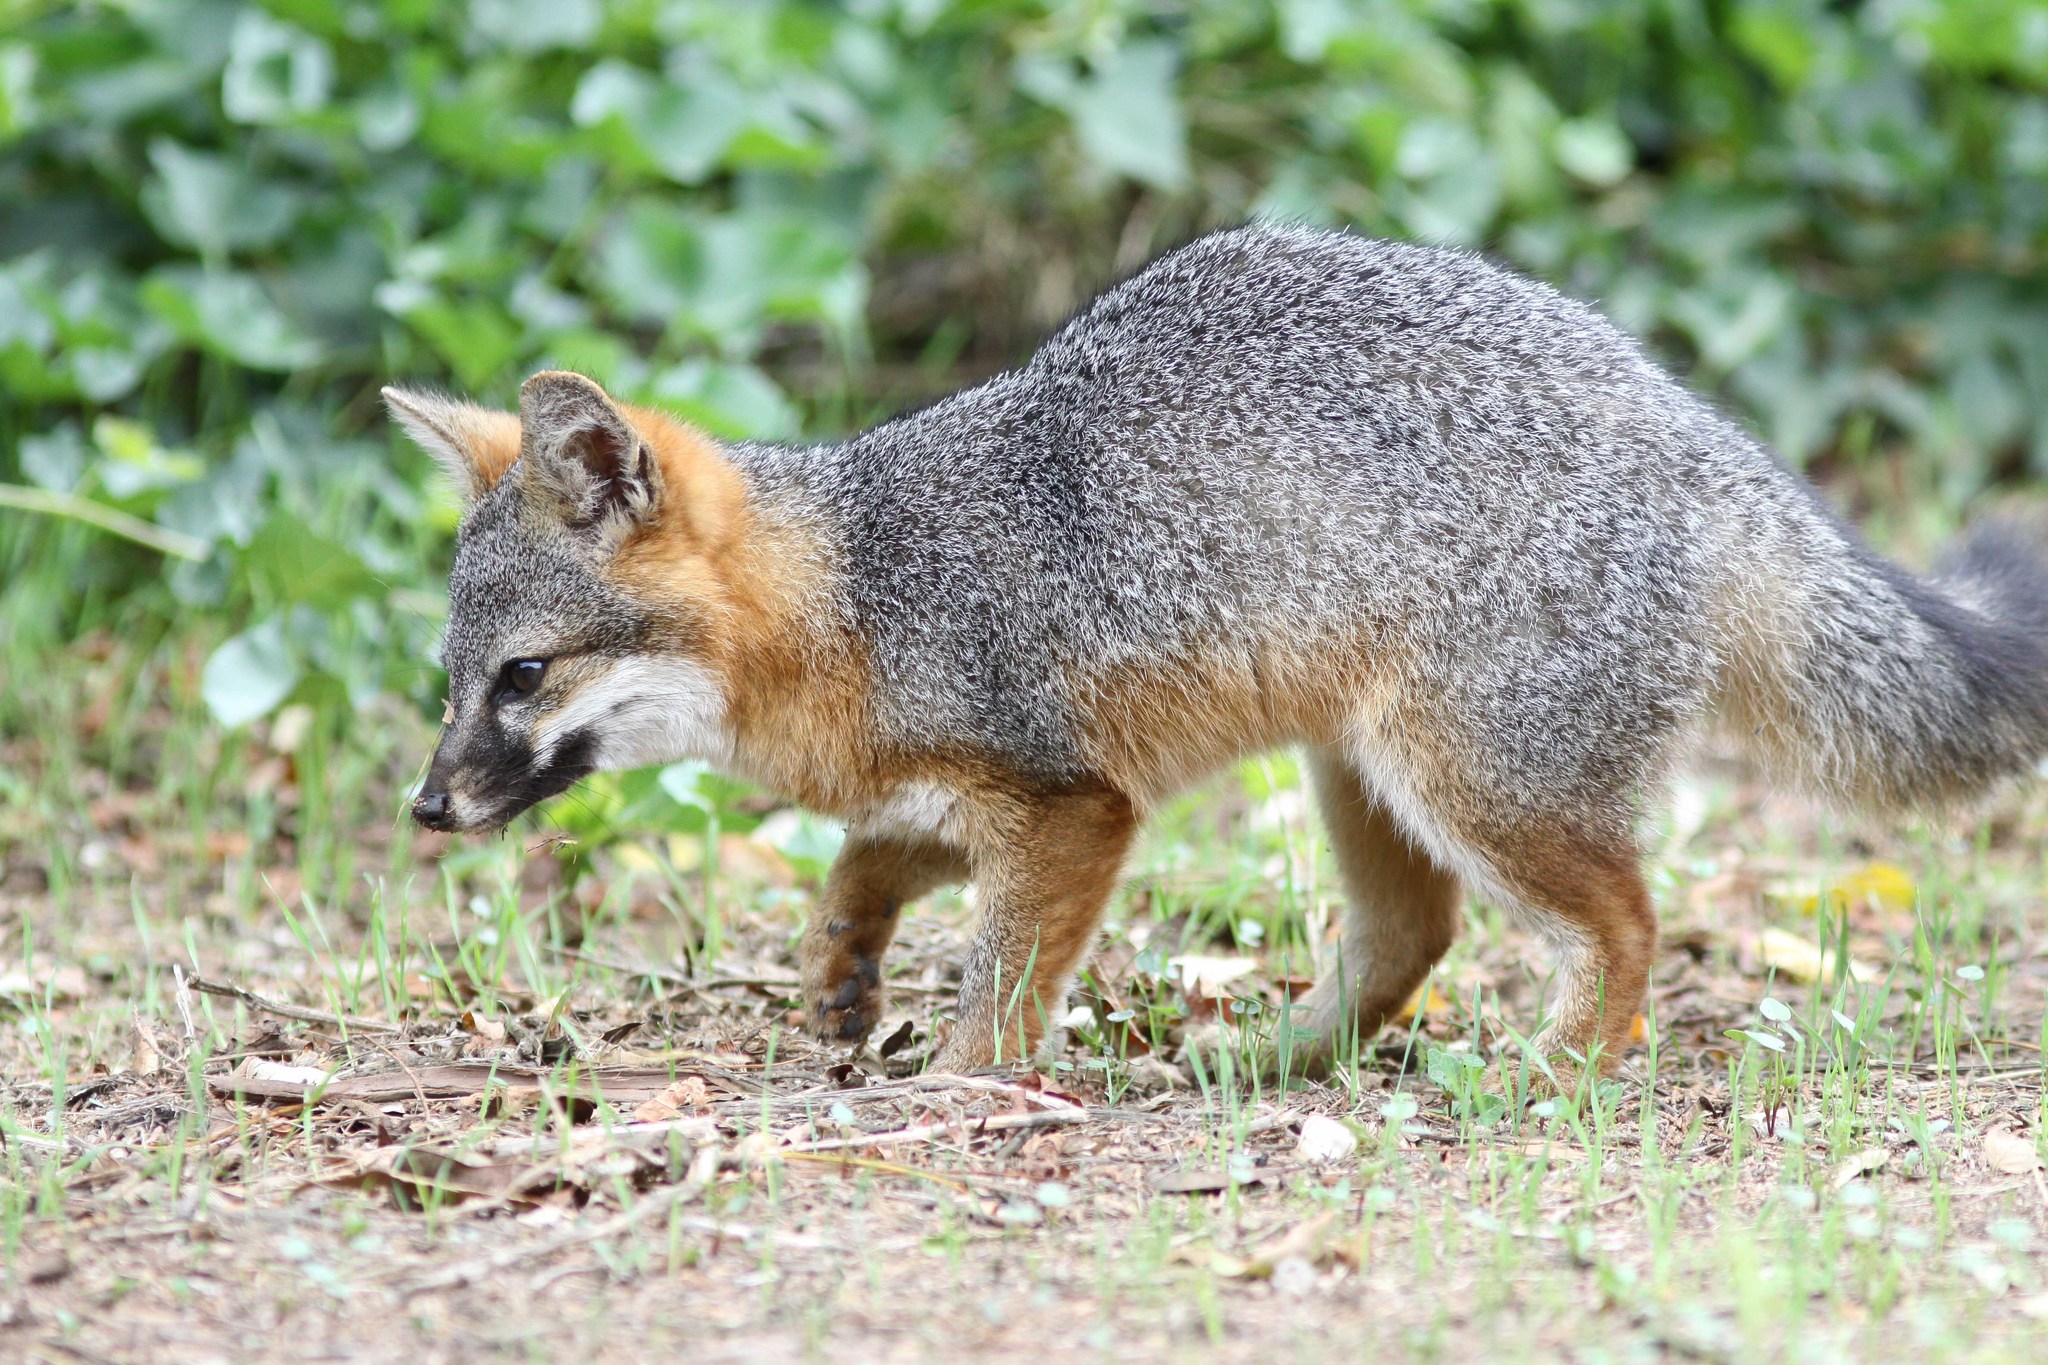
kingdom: Animalia
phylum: Chordata
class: Mammalia
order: Carnivora
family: Canidae
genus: Urocyon
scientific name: Urocyon littoralis
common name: Island gray fox
